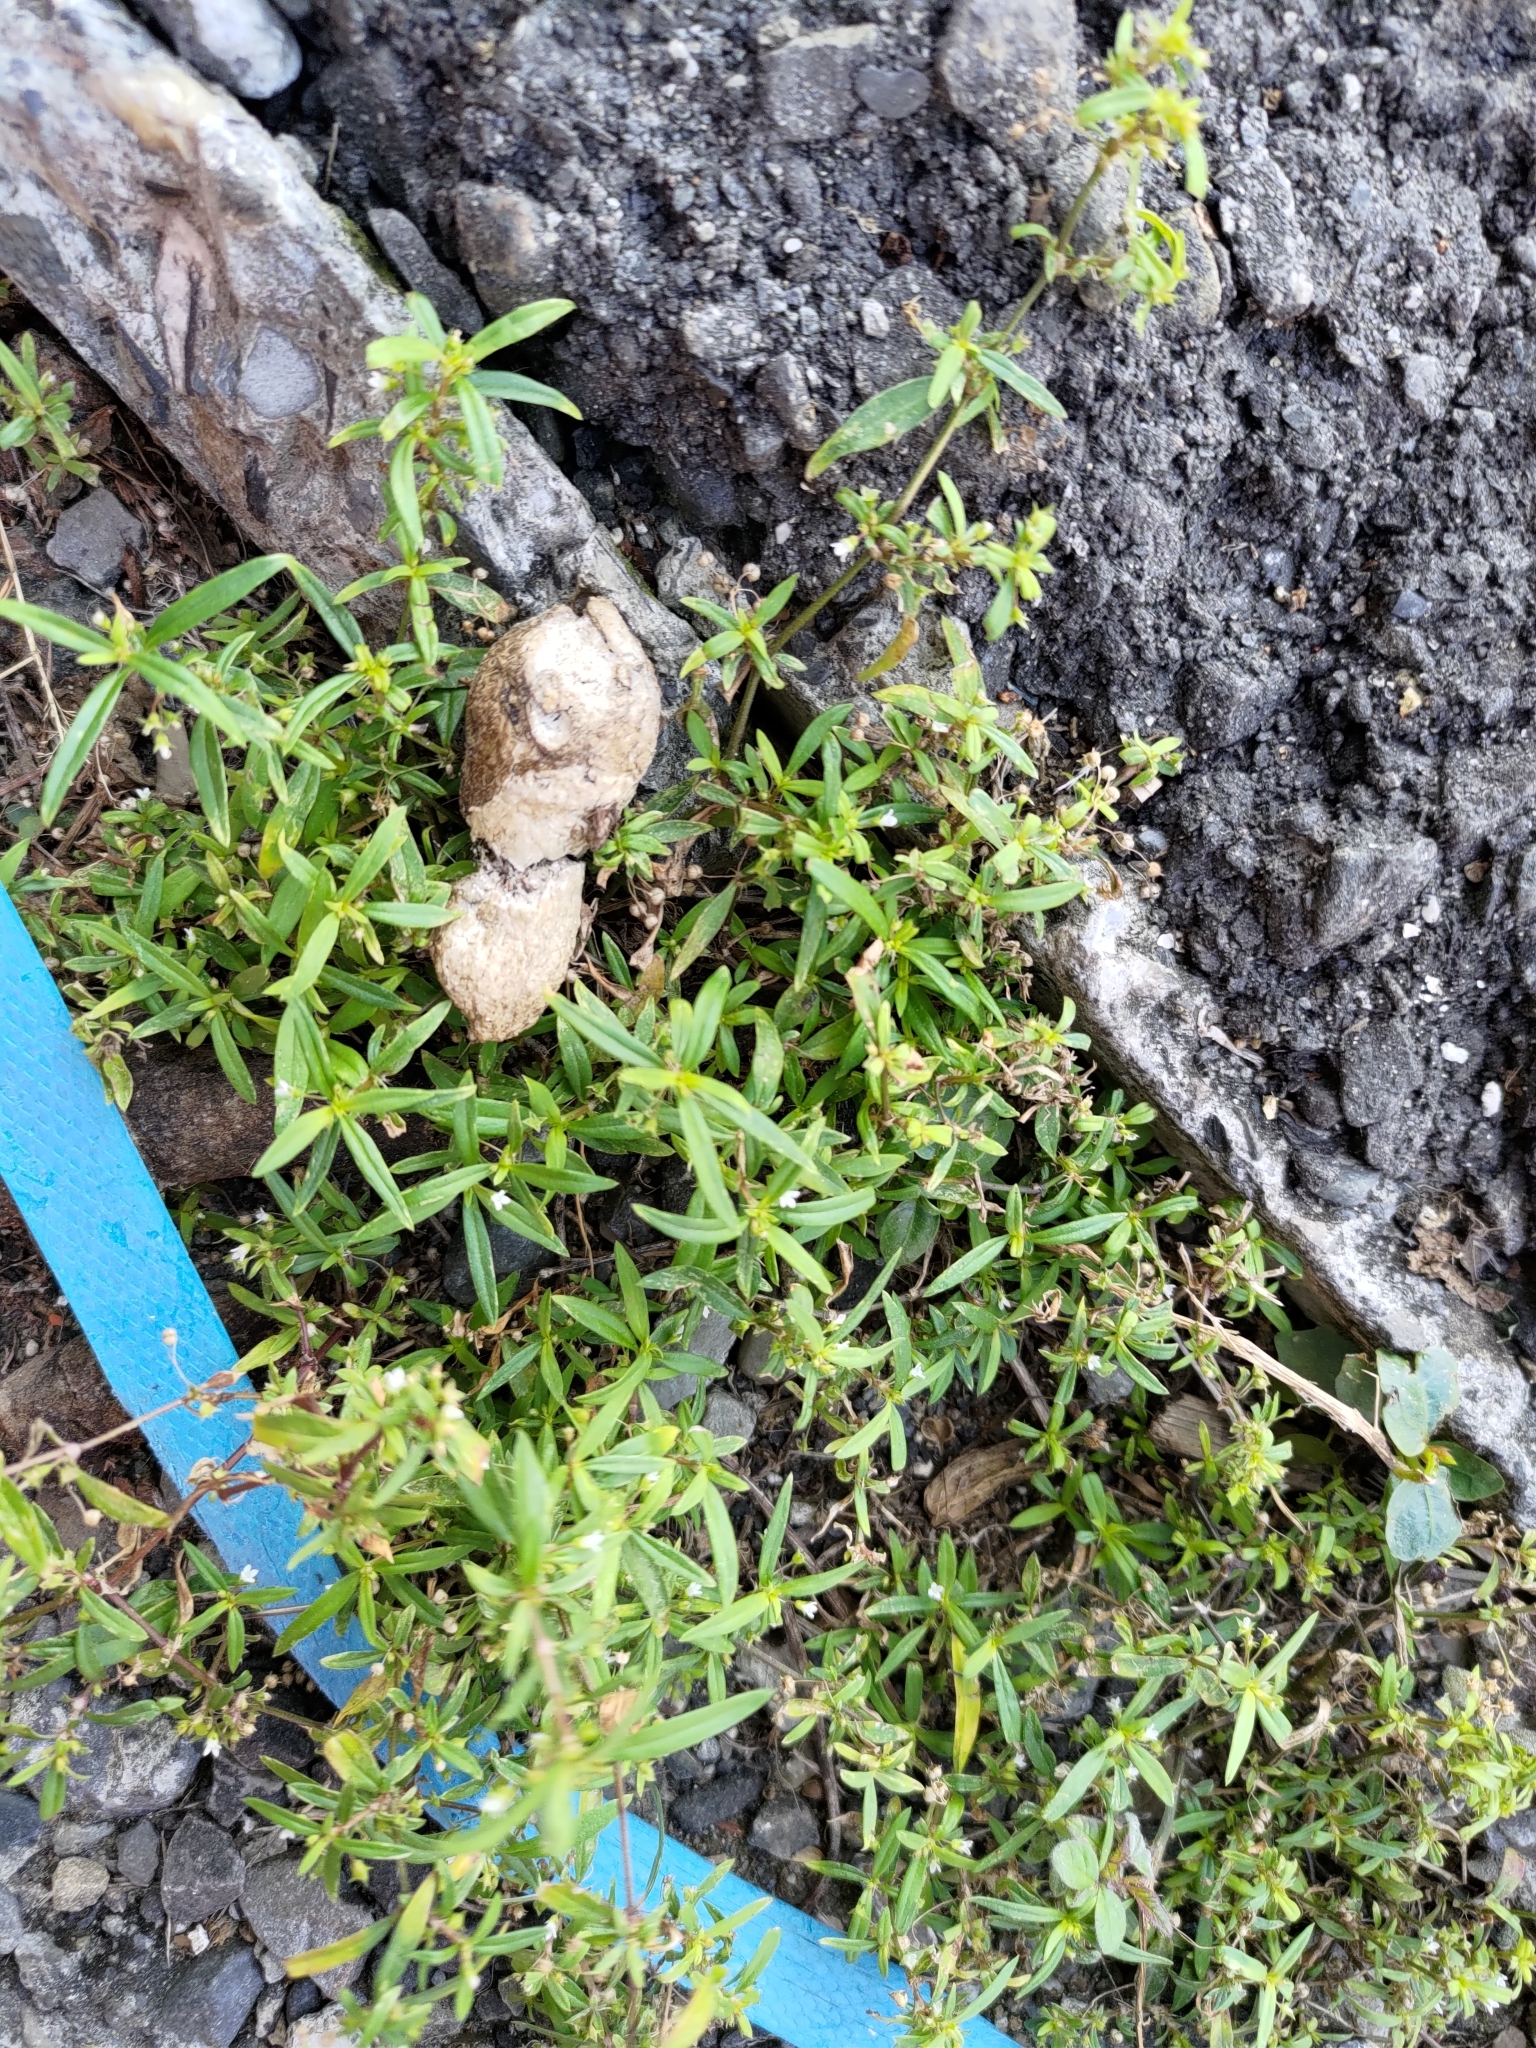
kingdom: Plantae
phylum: Tracheophyta
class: Magnoliopsida
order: Gentianales
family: Rubiaceae
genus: Oldenlandia
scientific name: Oldenlandia corymbosa
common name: Flat-top mille graines
